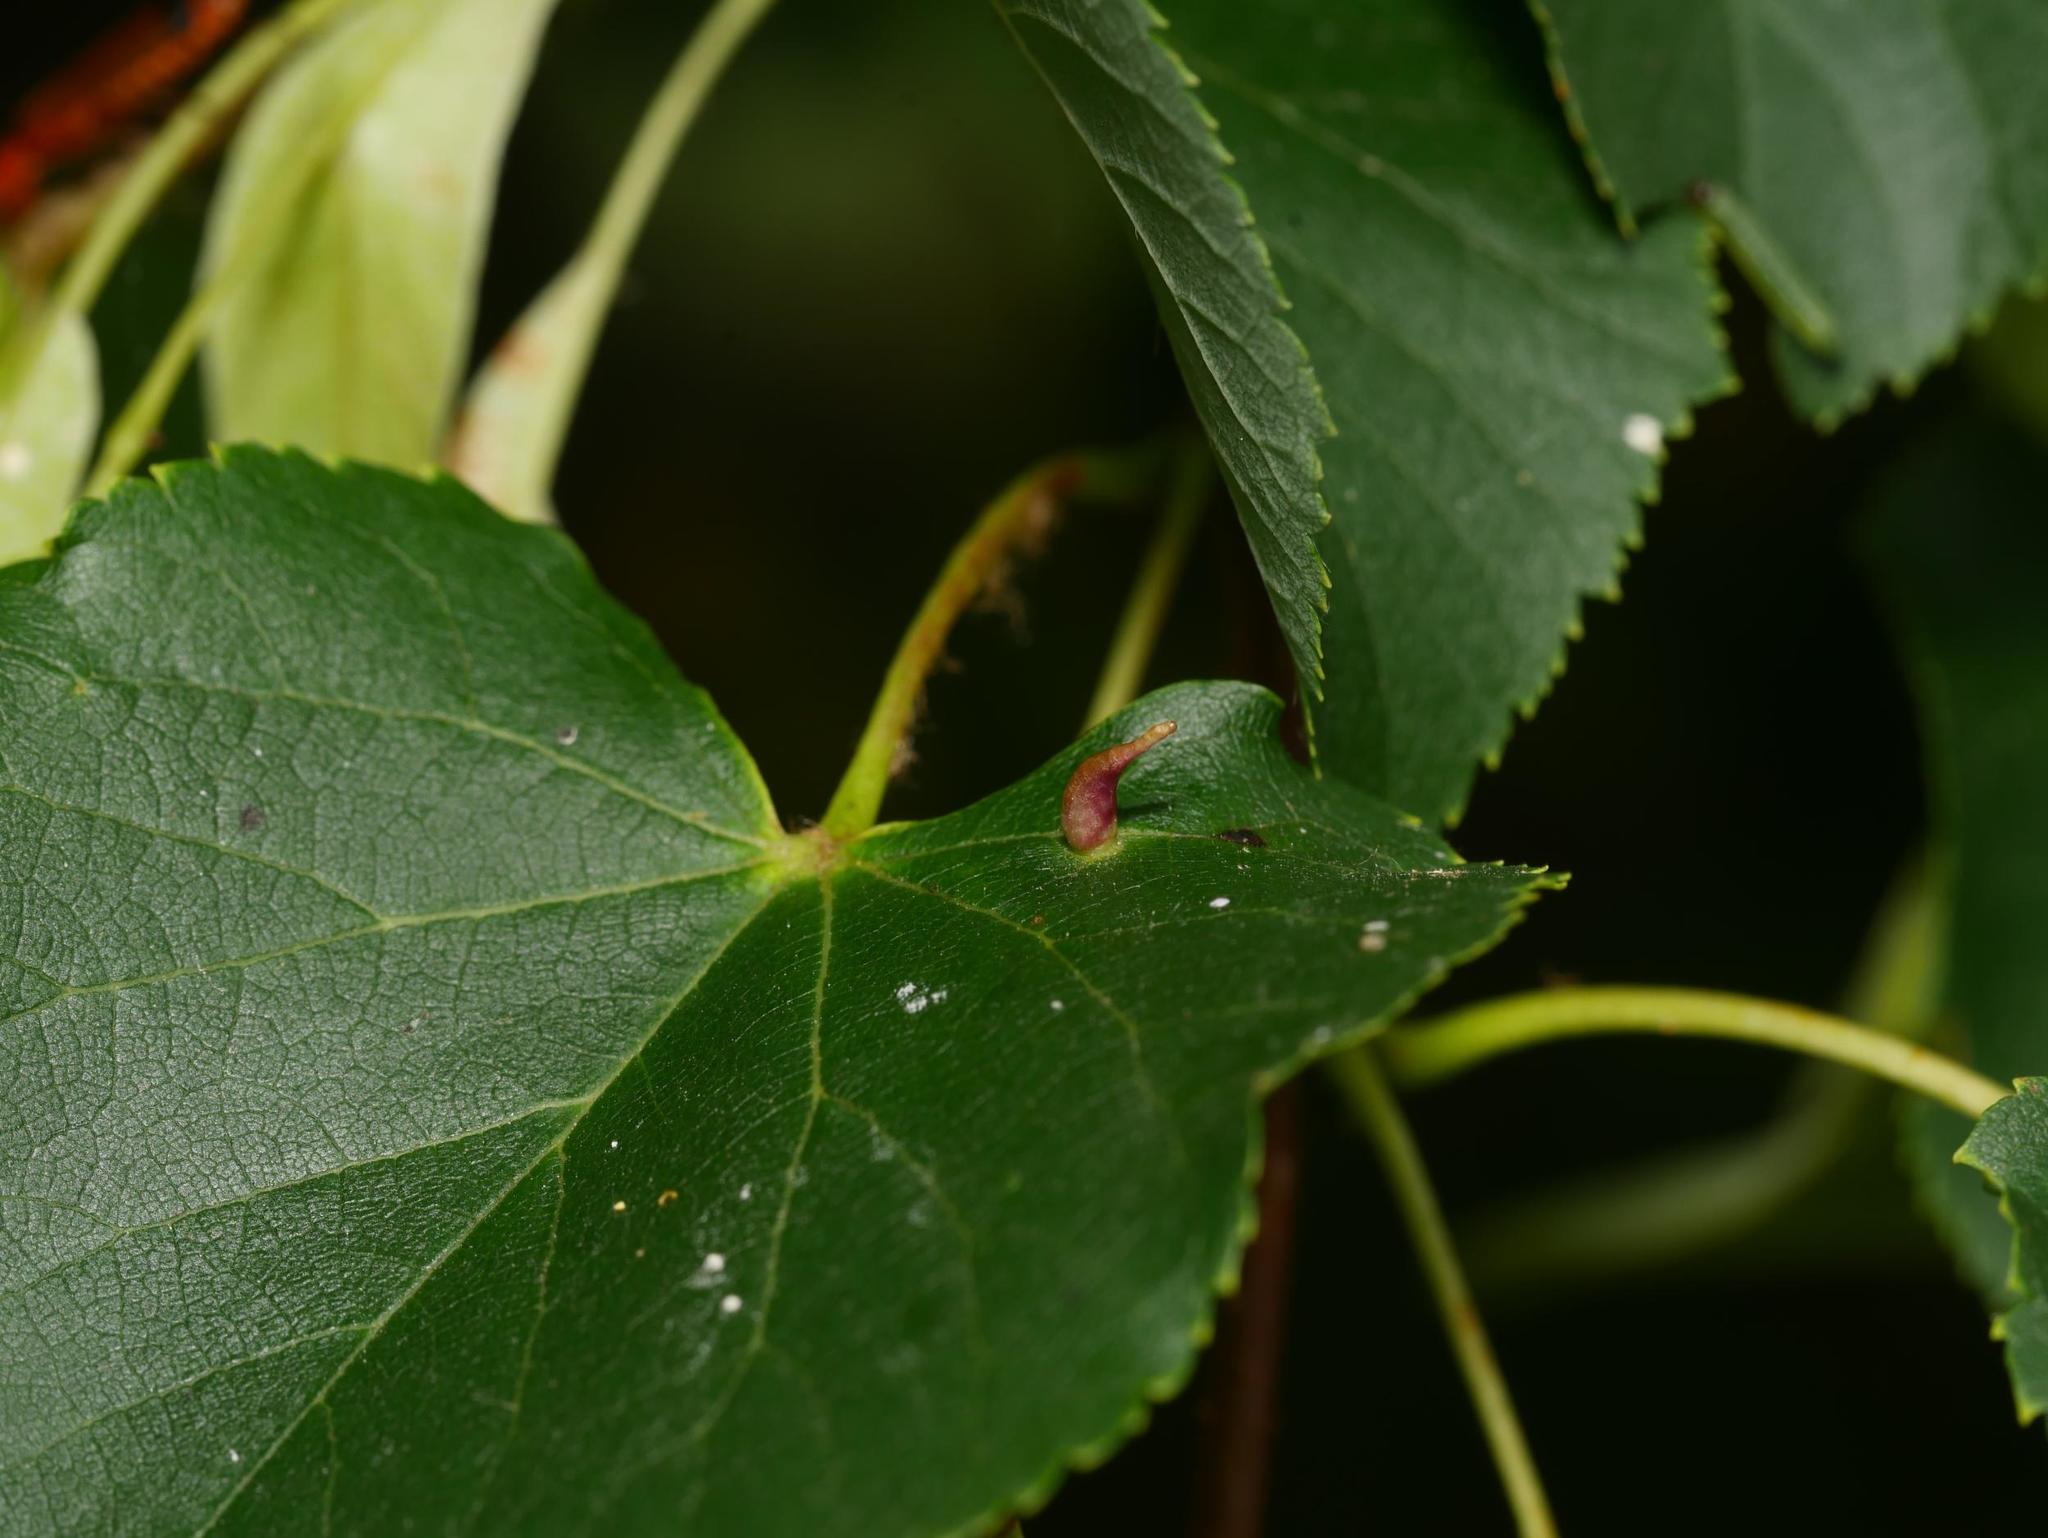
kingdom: Animalia
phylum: Arthropoda
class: Arachnida
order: Trombidiformes
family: Eriophyidae
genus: Eriophyes
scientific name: Eriophyes tiliae
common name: Red nail gall mite
